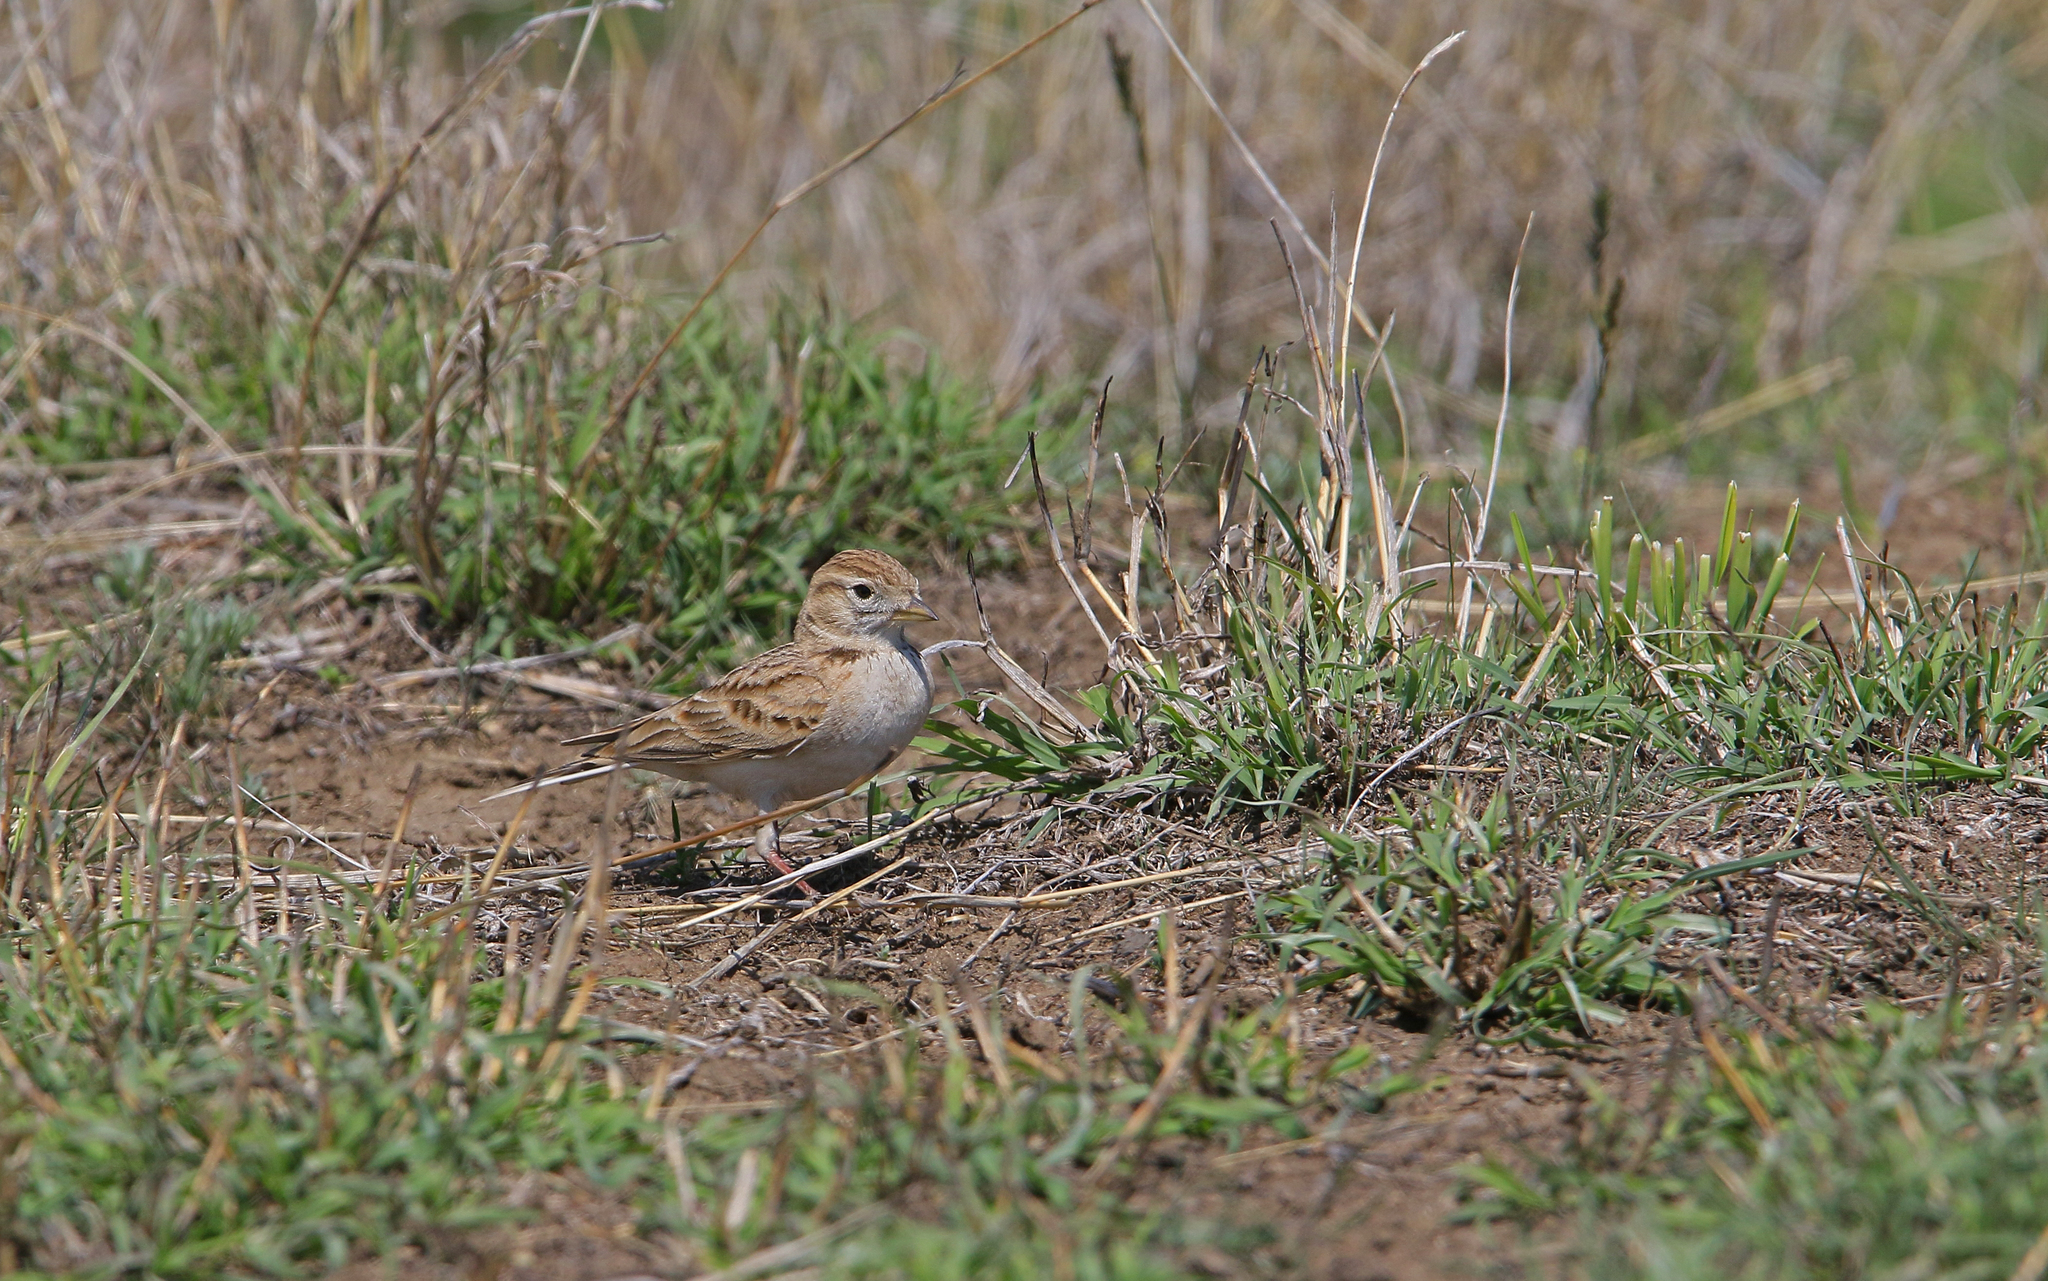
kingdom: Animalia
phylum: Chordata
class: Aves
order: Passeriformes
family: Alaudidae
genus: Calandrella
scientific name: Calandrella brachydactyla
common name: Greater short-toed lark
